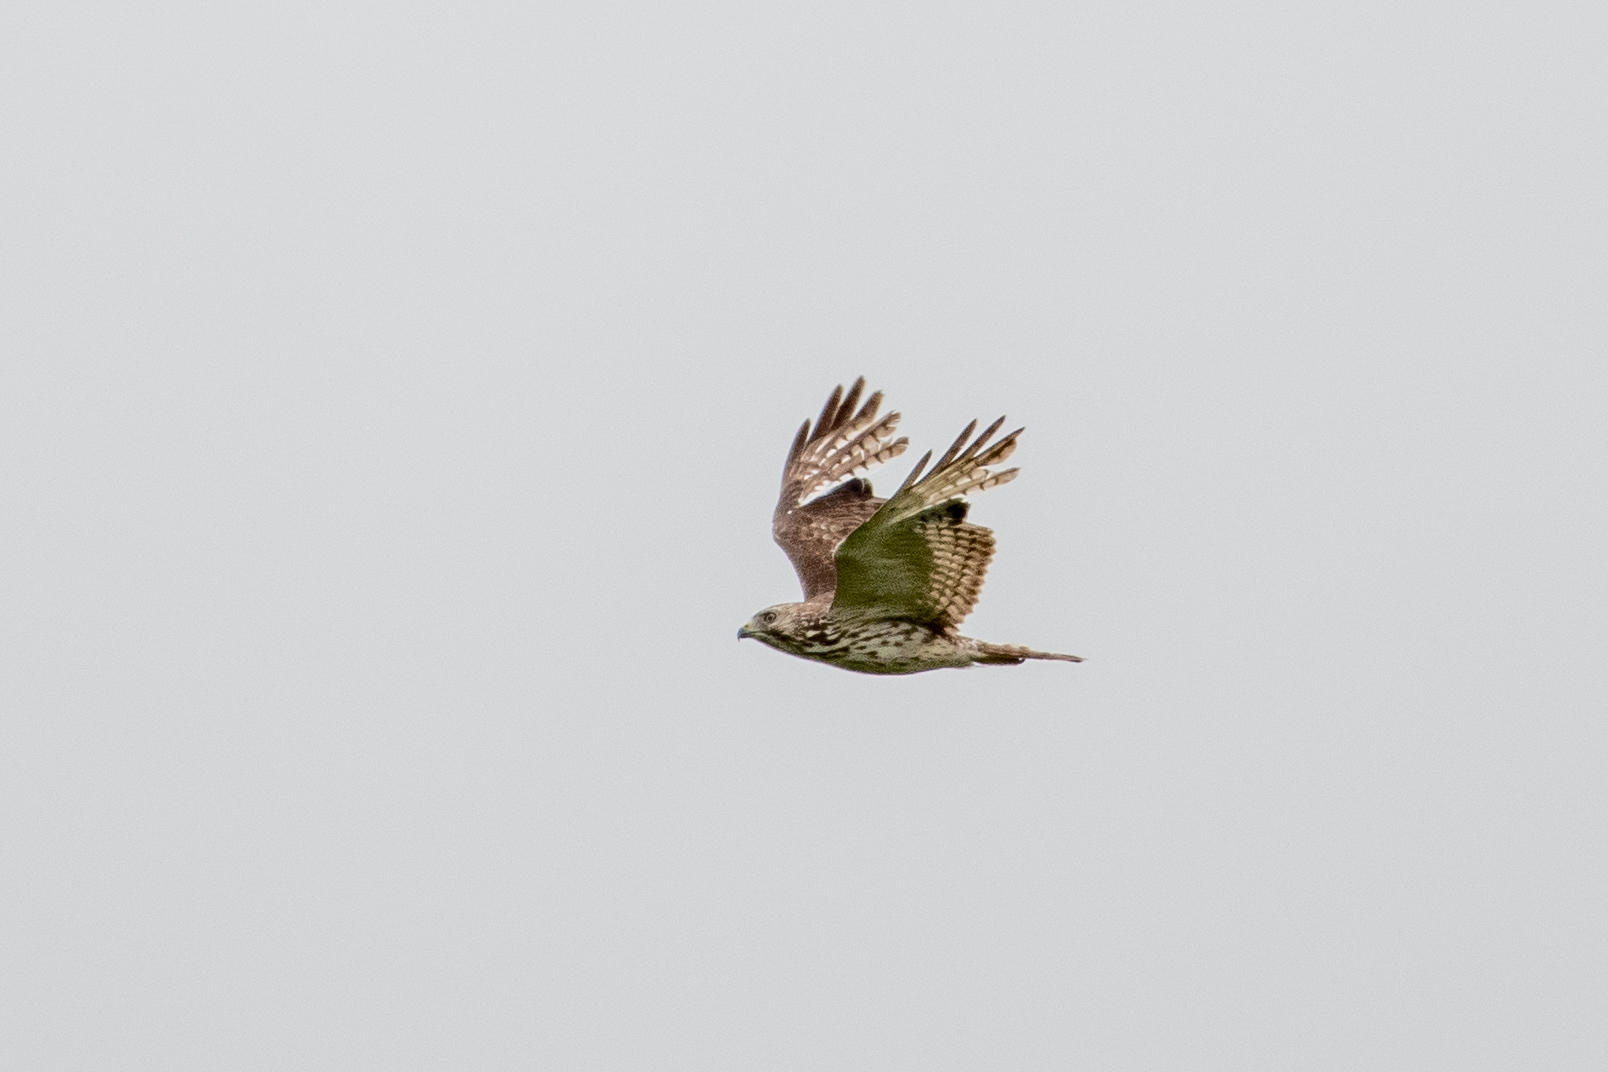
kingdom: Animalia
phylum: Chordata
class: Aves
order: Accipitriformes
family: Accipitridae
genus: Buteo
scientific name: Buteo platypterus
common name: Broad-winged hawk
